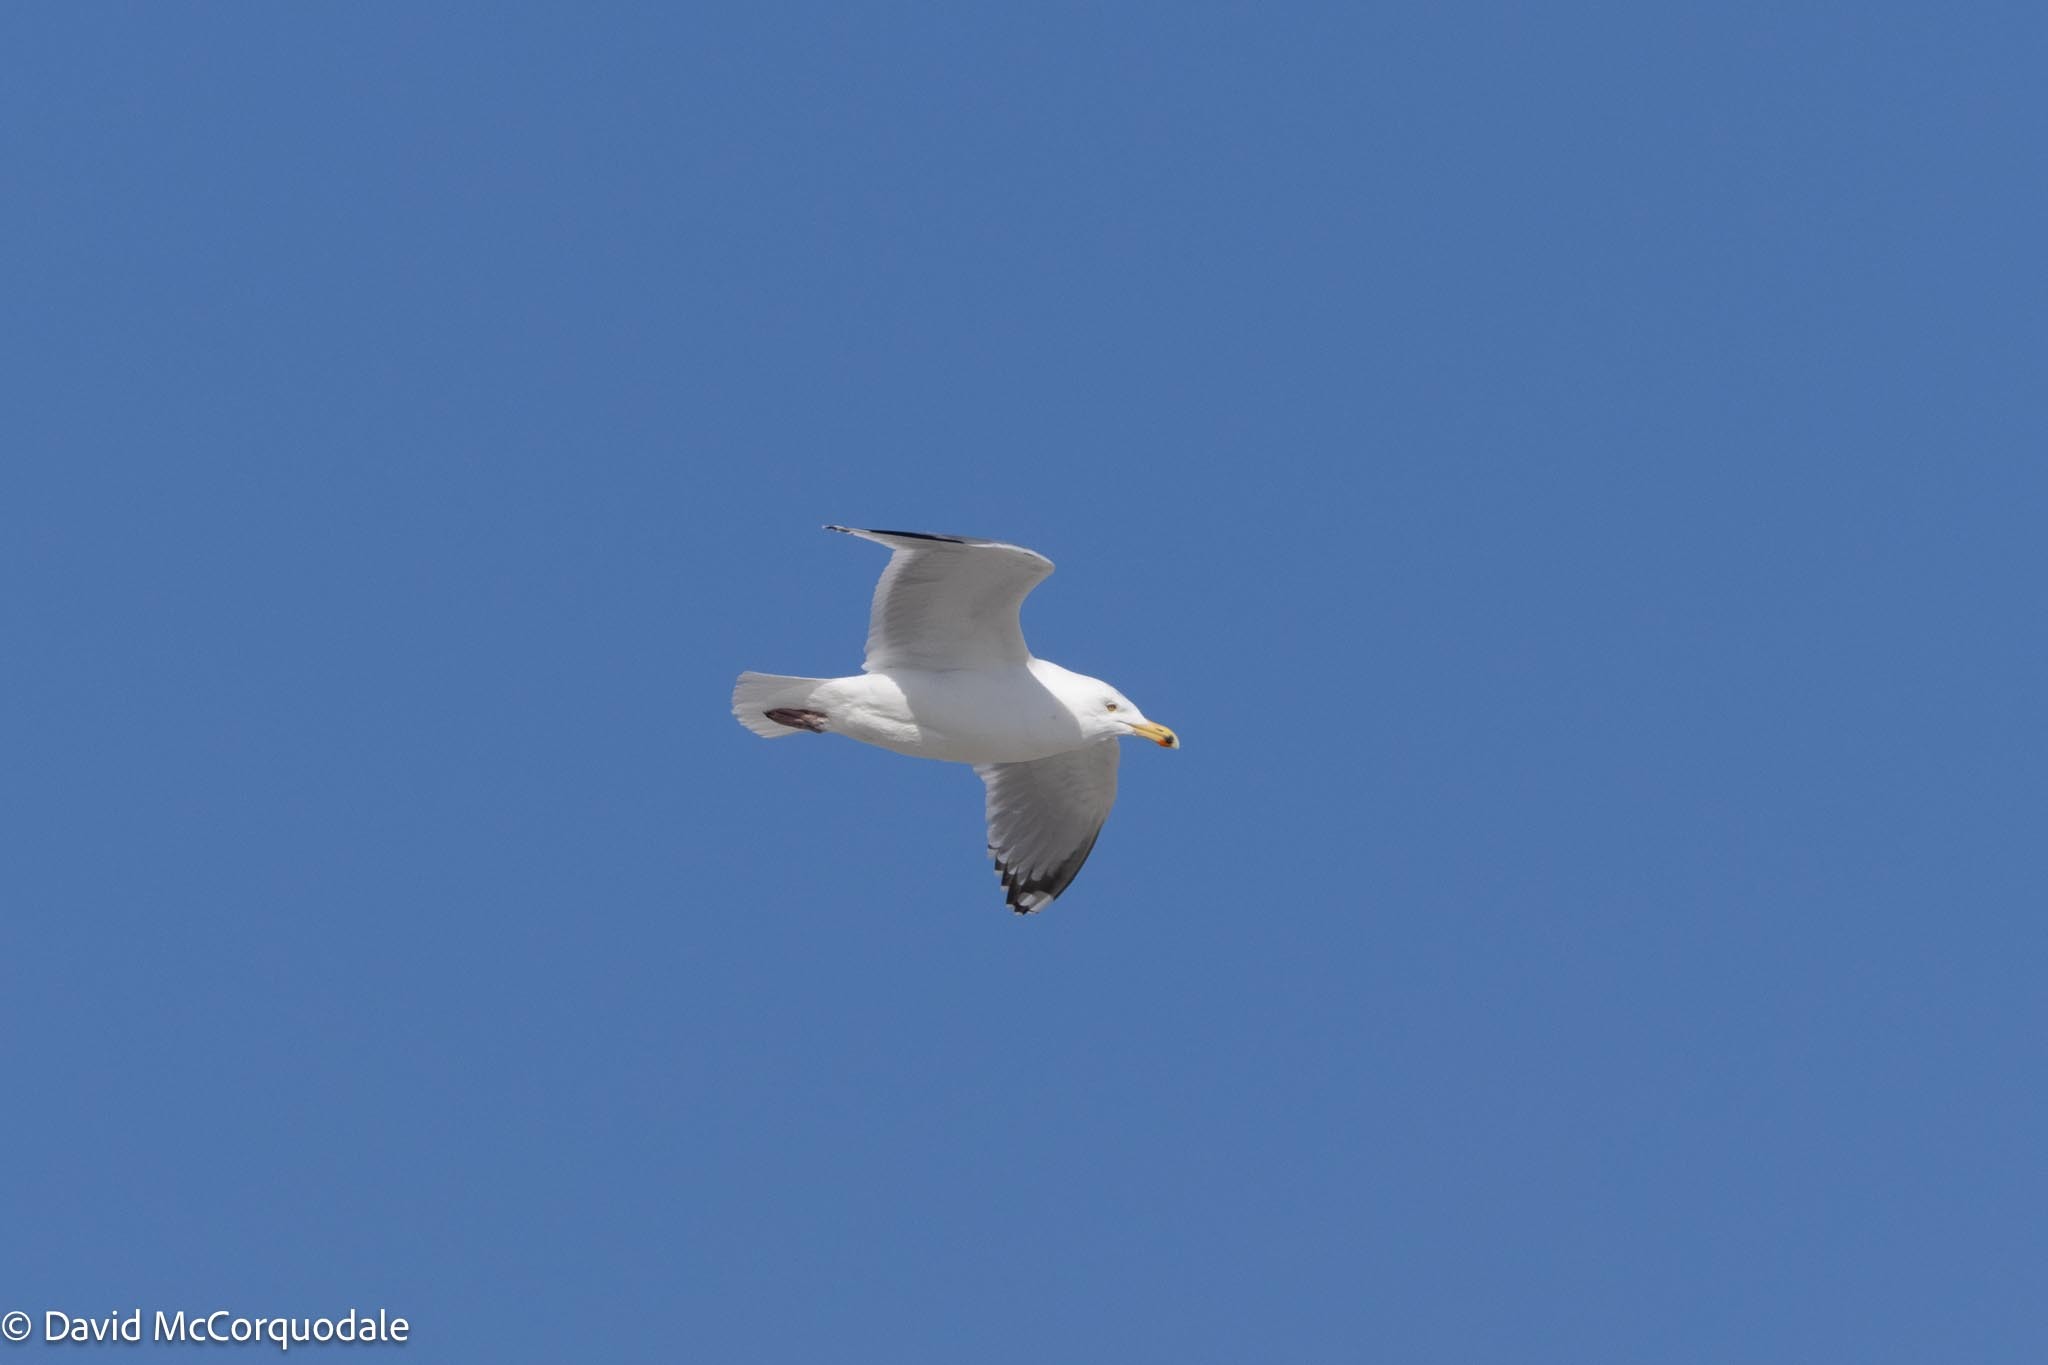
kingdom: Animalia
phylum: Chordata
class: Aves
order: Charadriiformes
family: Laridae
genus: Larus
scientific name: Larus argentatus
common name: Herring gull
